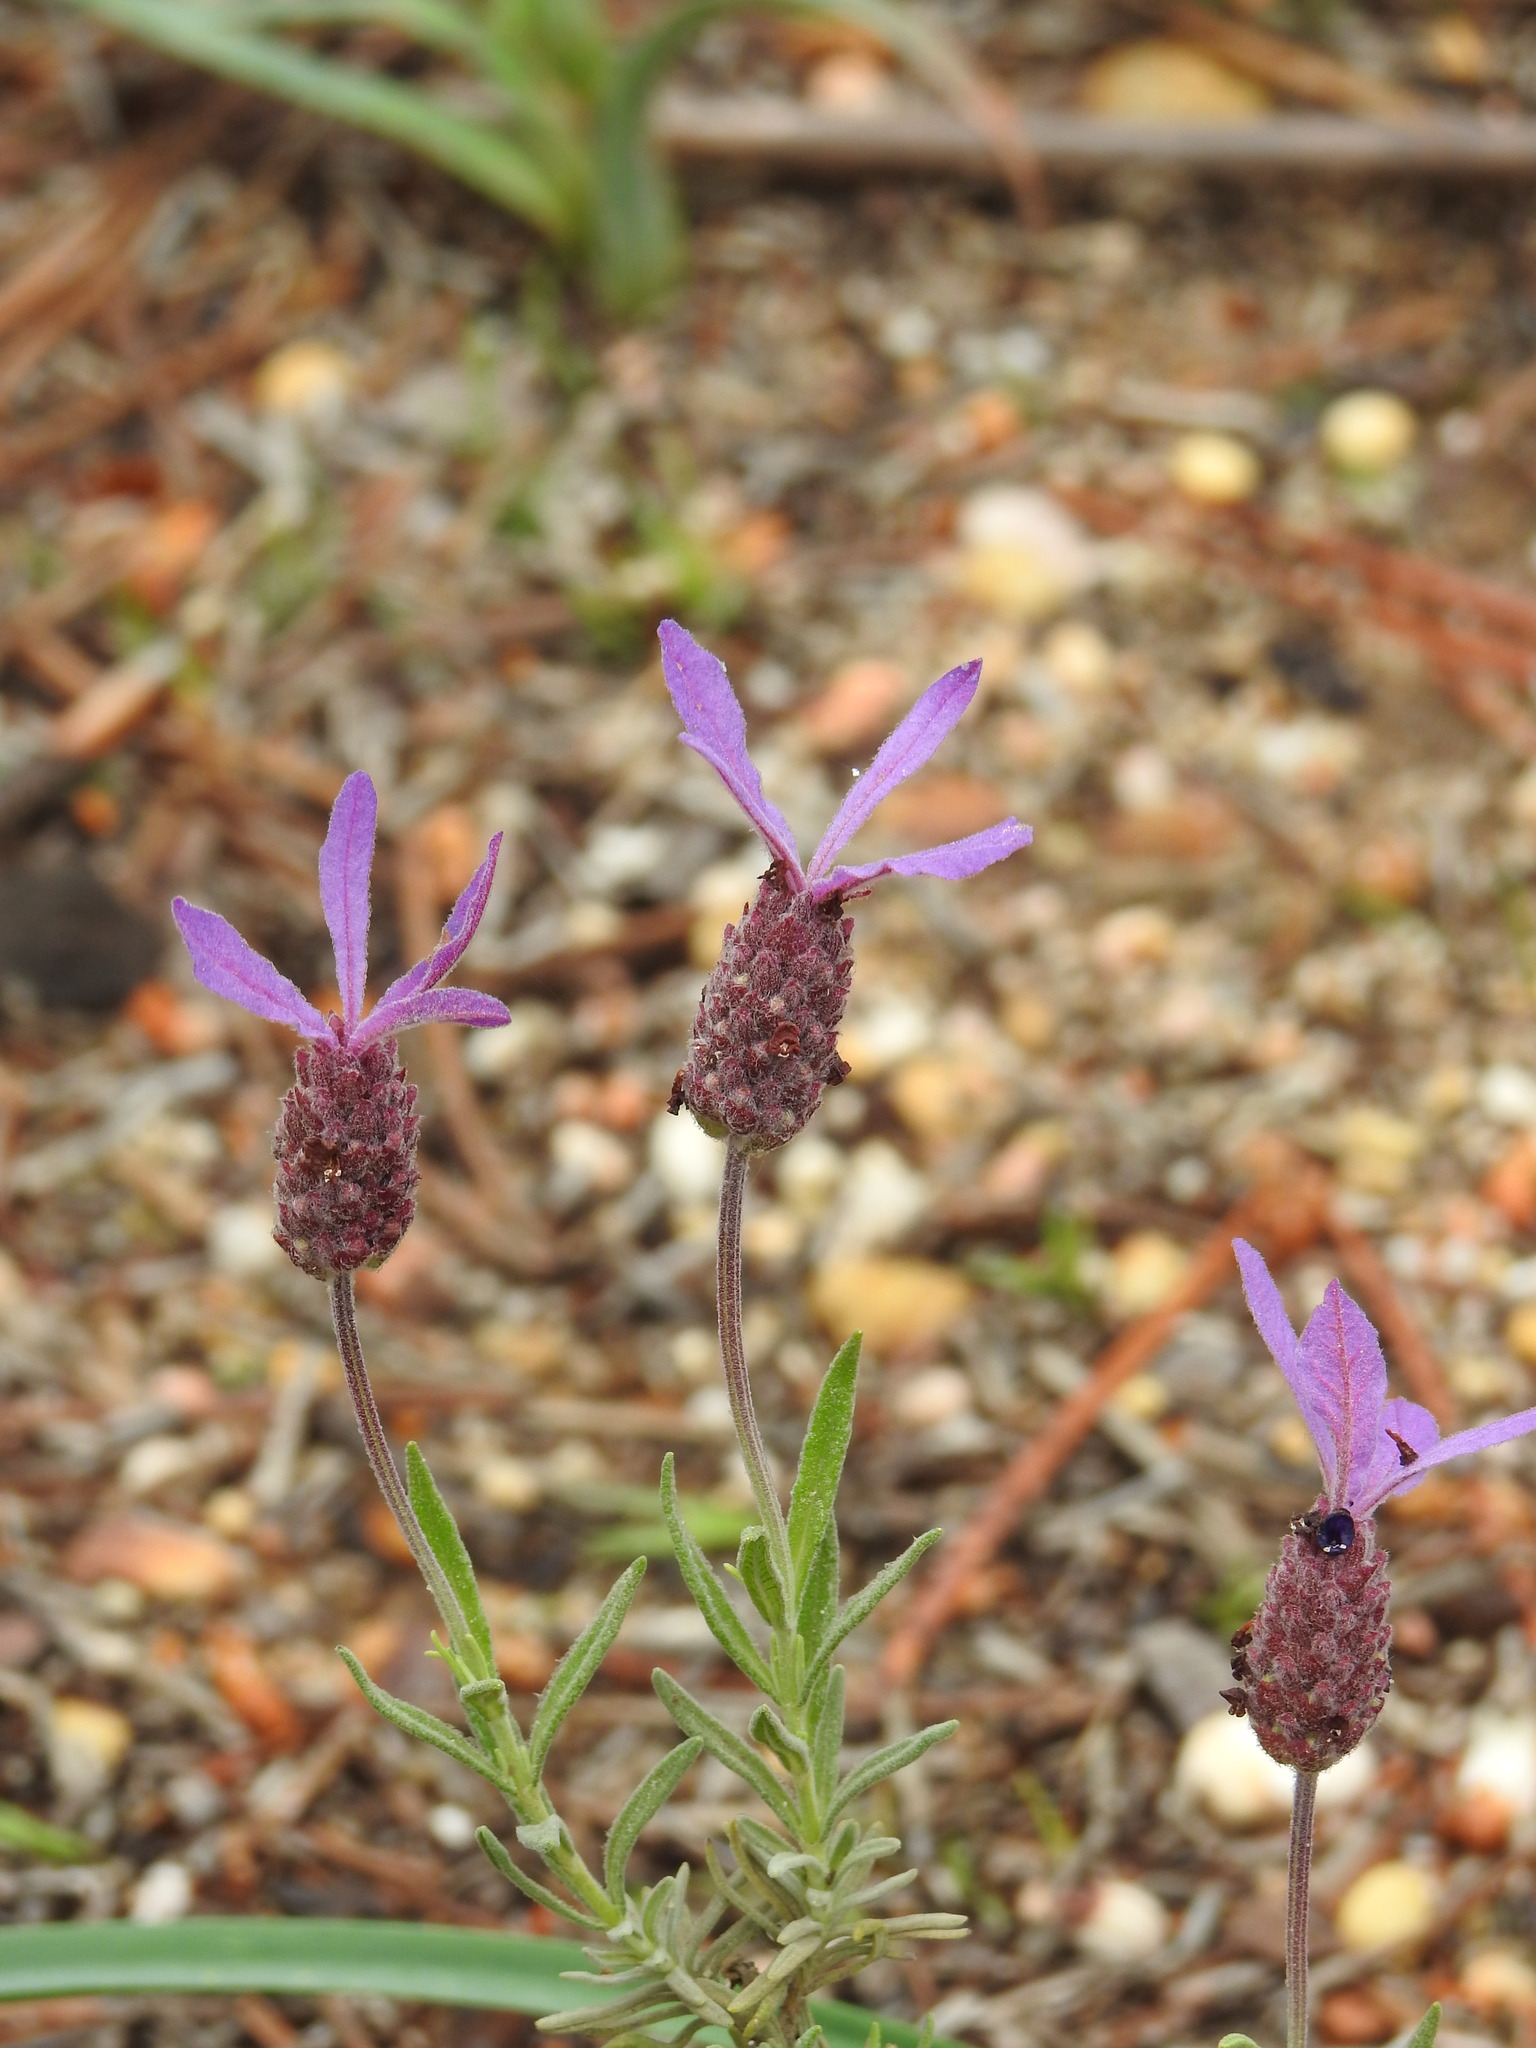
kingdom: Plantae
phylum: Tracheophyta
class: Magnoliopsida
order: Lamiales
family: Lamiaceae
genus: Lavandula
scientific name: Lavandula pedunculata
